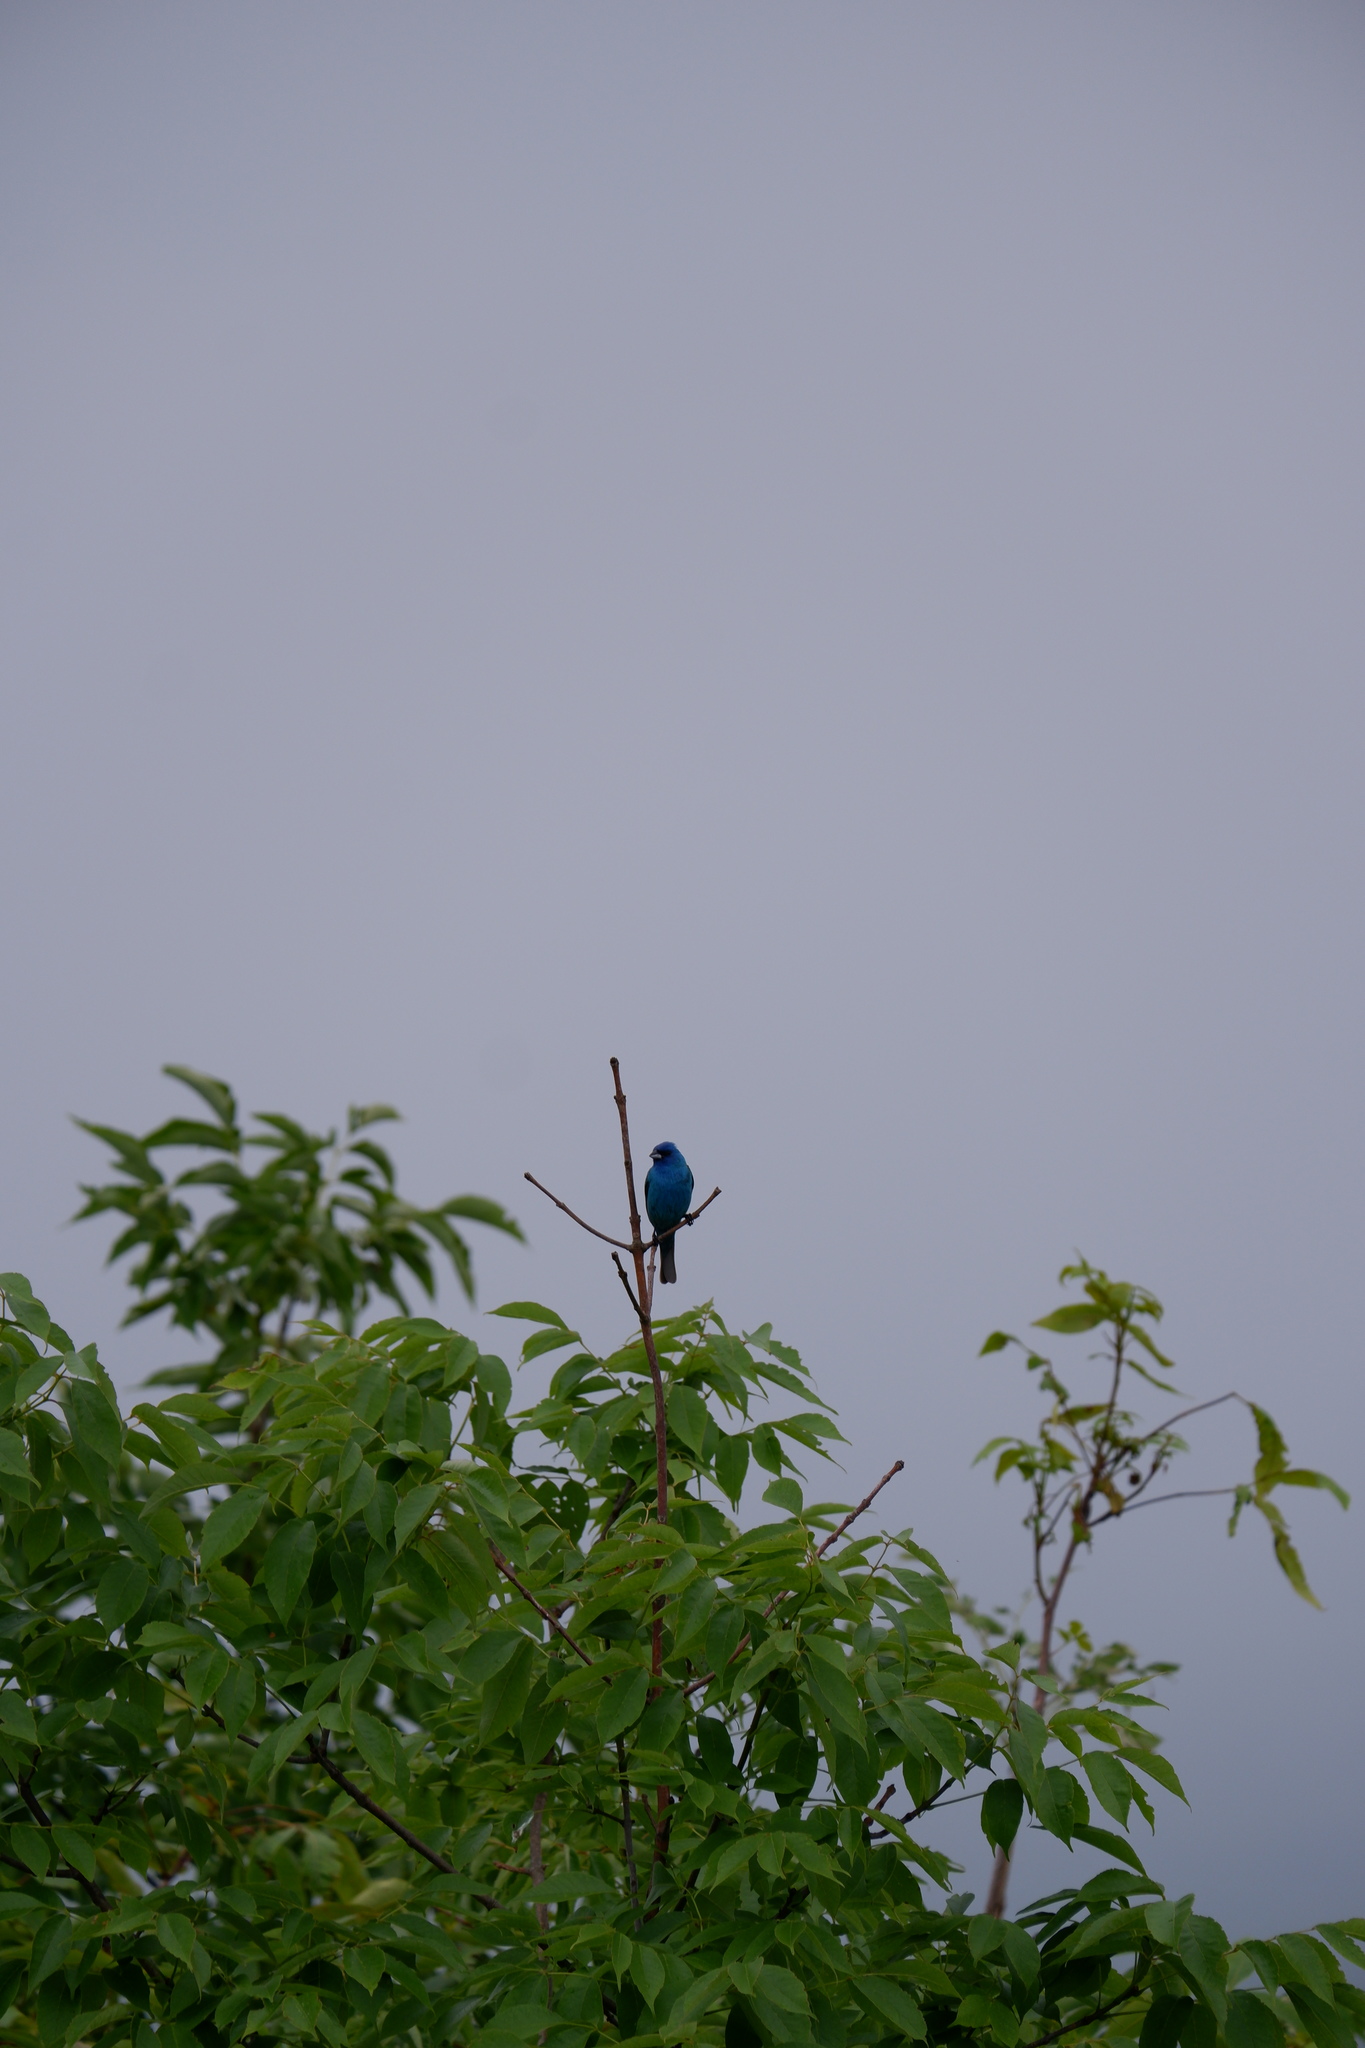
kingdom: Animalia
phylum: Chordata
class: Aves
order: Passeriformes
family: Cardinalidae
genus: Passerina
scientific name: Passerina cyanea
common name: Indigo bunting
